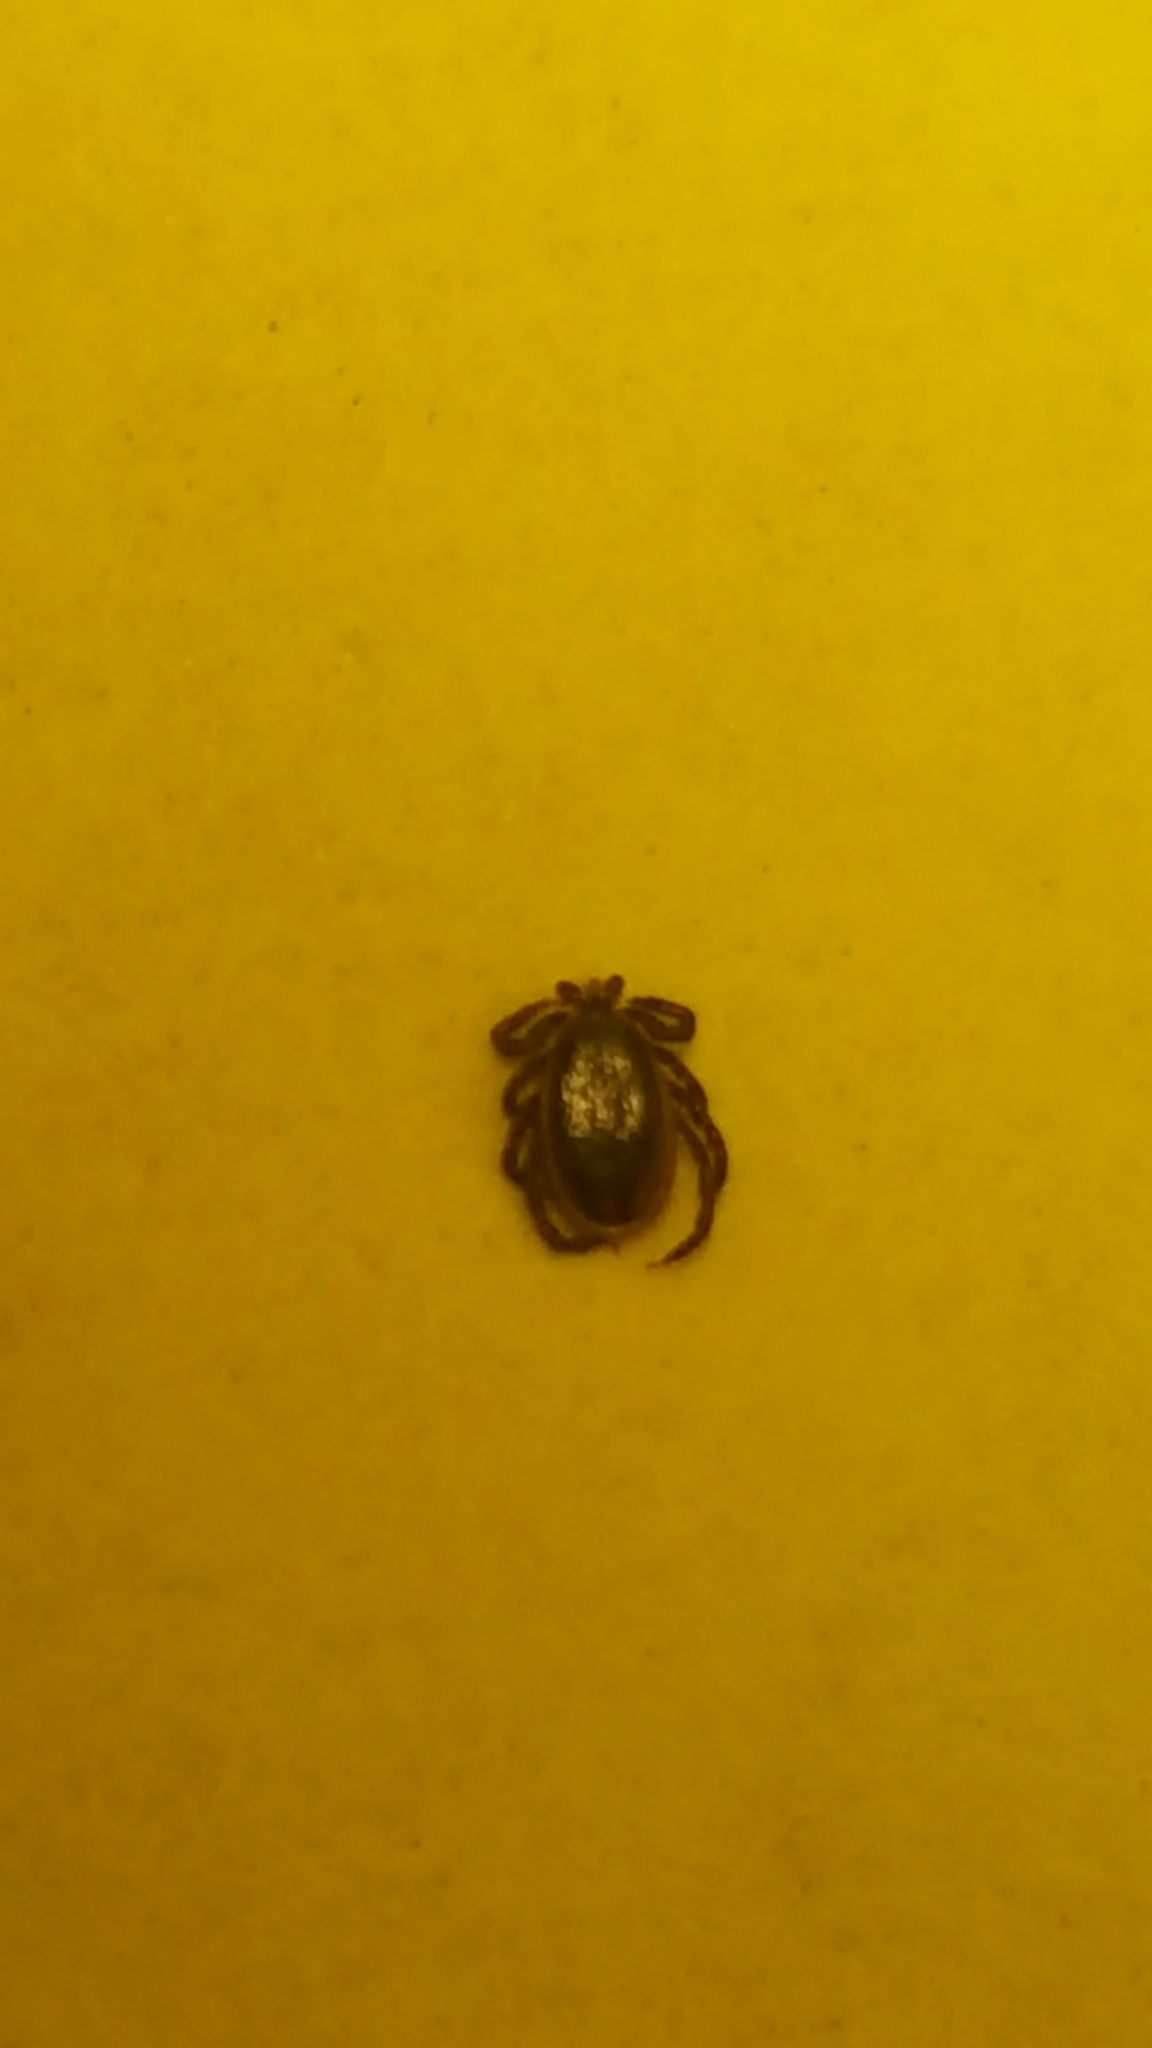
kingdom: Animalia
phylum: Arthropoda
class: Arachnida
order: Ixodida
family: Ixodidae
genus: Ixodes
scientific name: Ixodes scapularis
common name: Black legged tick
